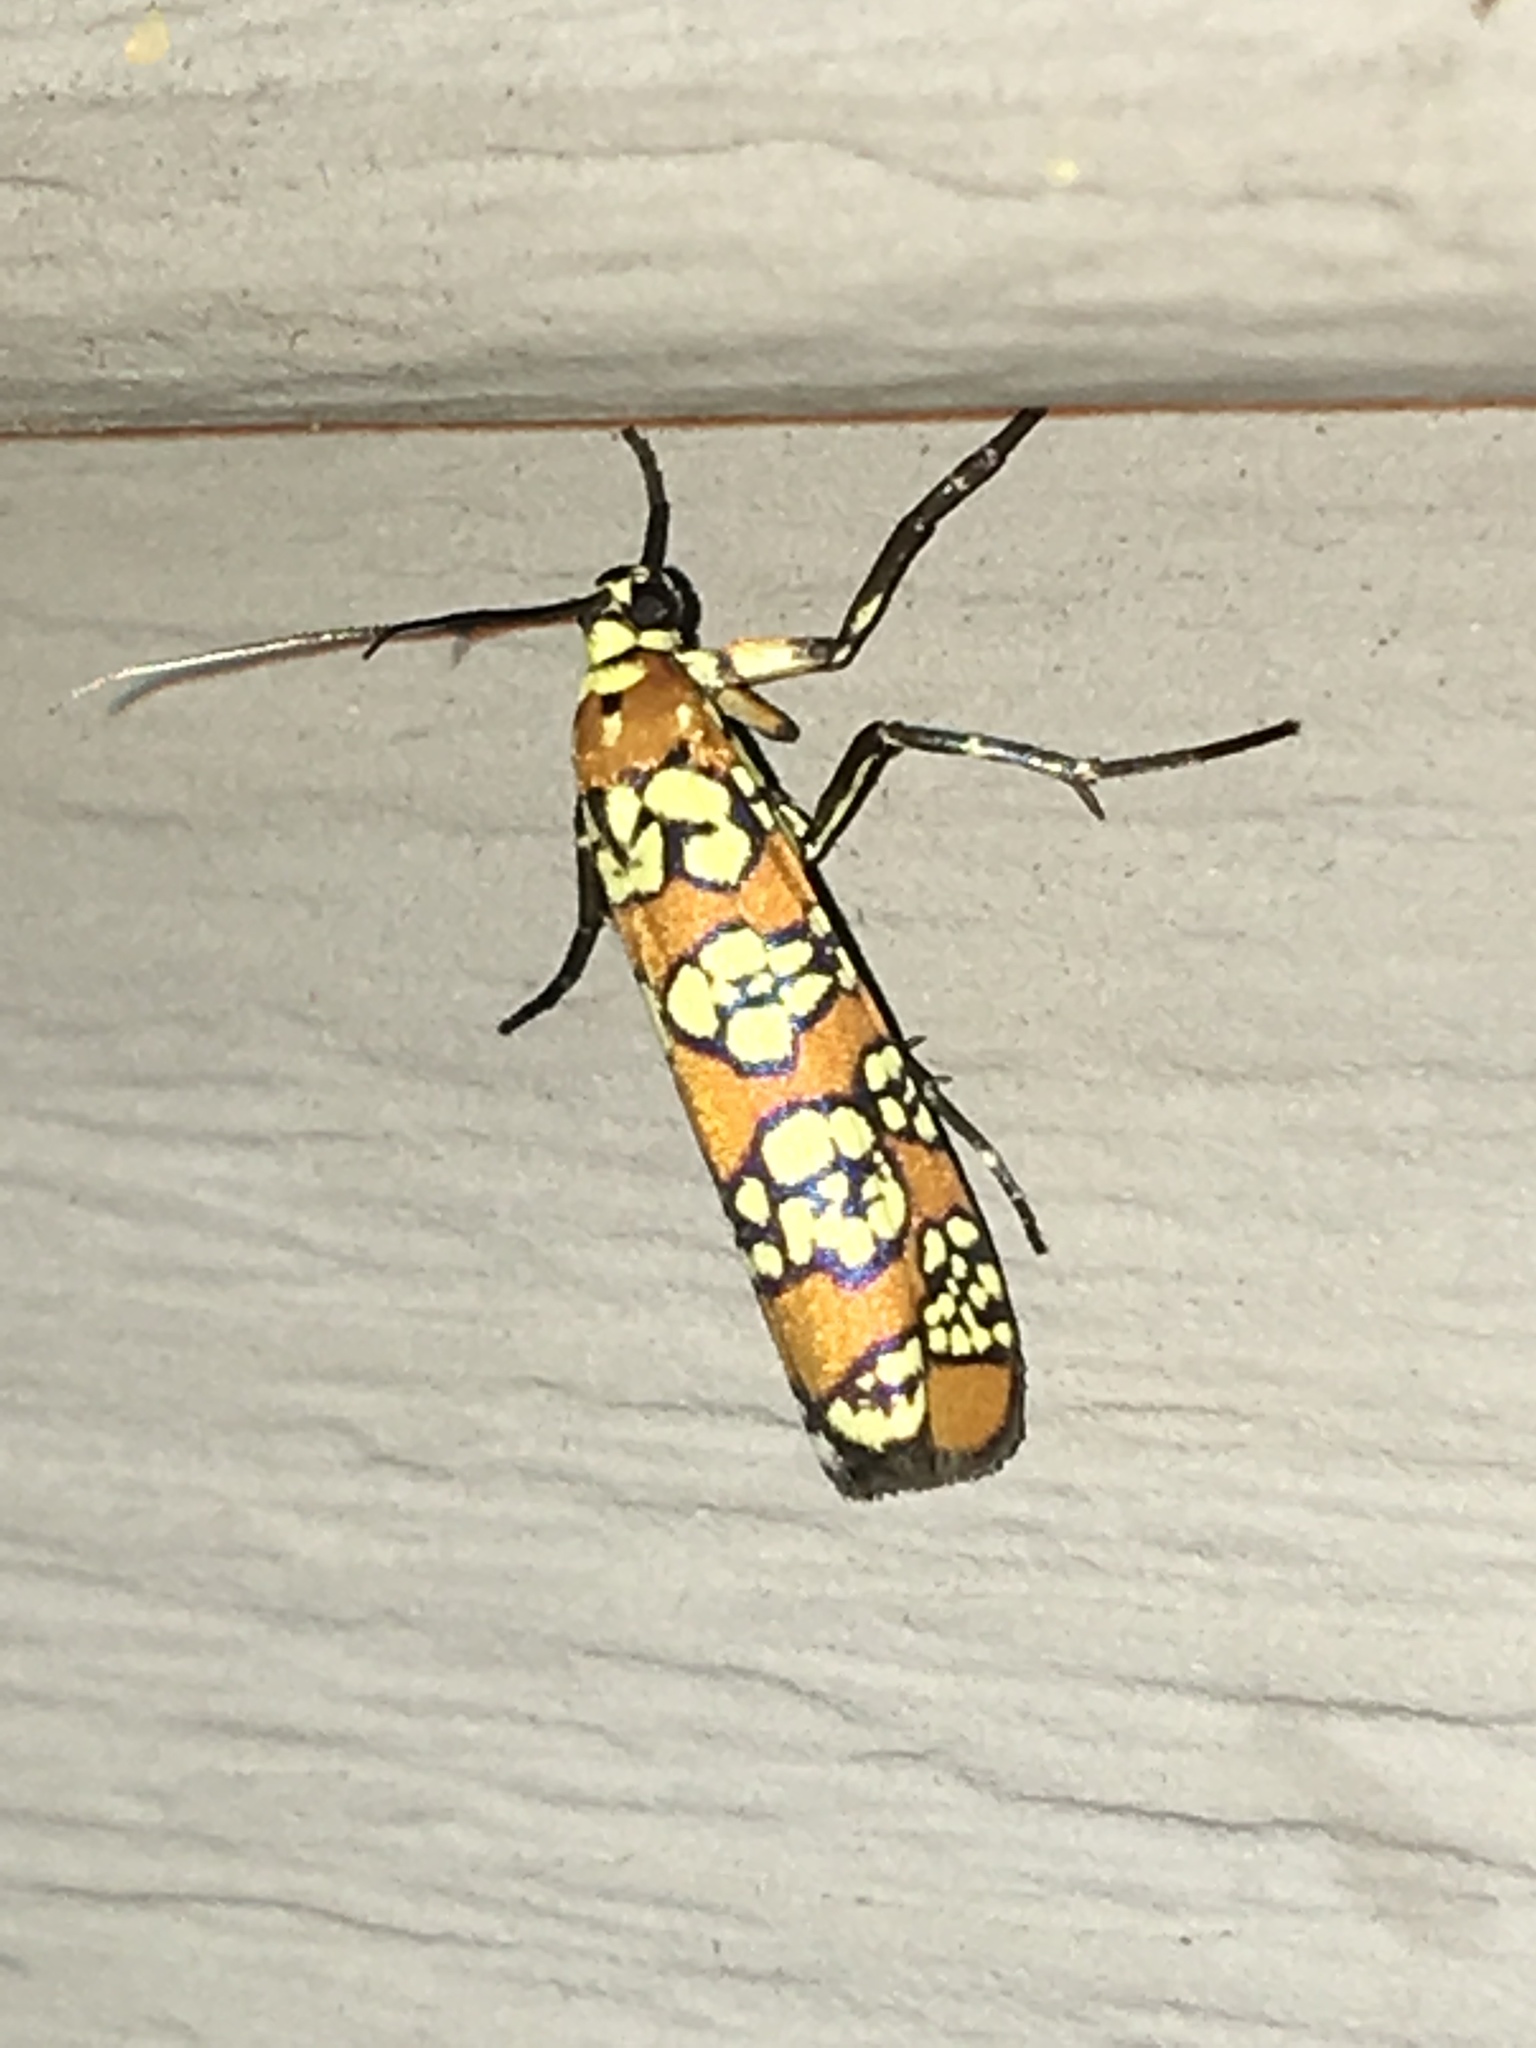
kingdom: Animalia
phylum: Arthropoda
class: Insecta
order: Lepidoptera
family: Attevidae
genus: Atteva
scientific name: Atteva punctella
